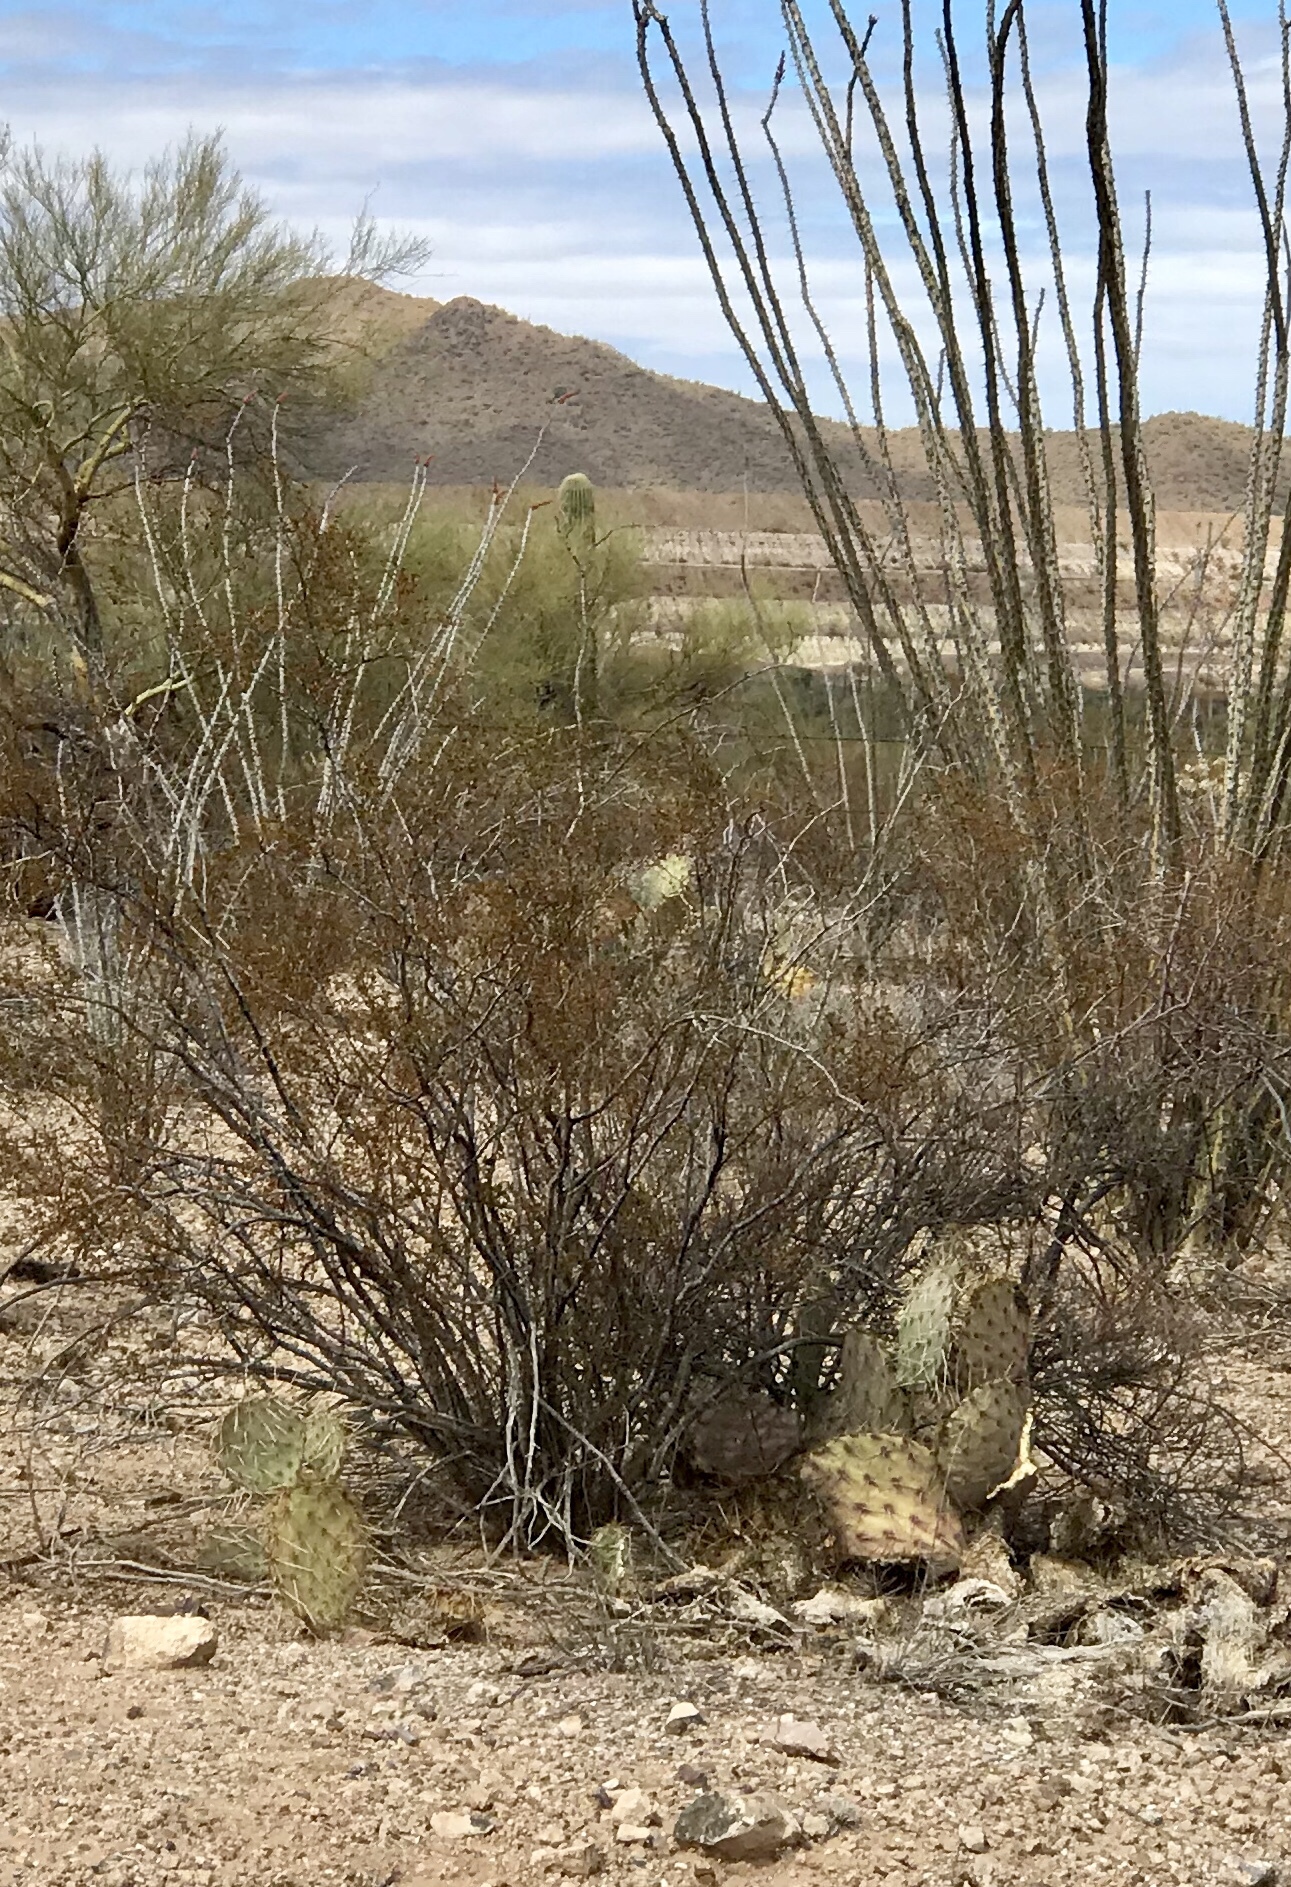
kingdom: Plantae
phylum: Tracheophyta
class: Magnoliopsida
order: Zygophyllales
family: Zygophyllaceae
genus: Larrea
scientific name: Larrea tridentata
